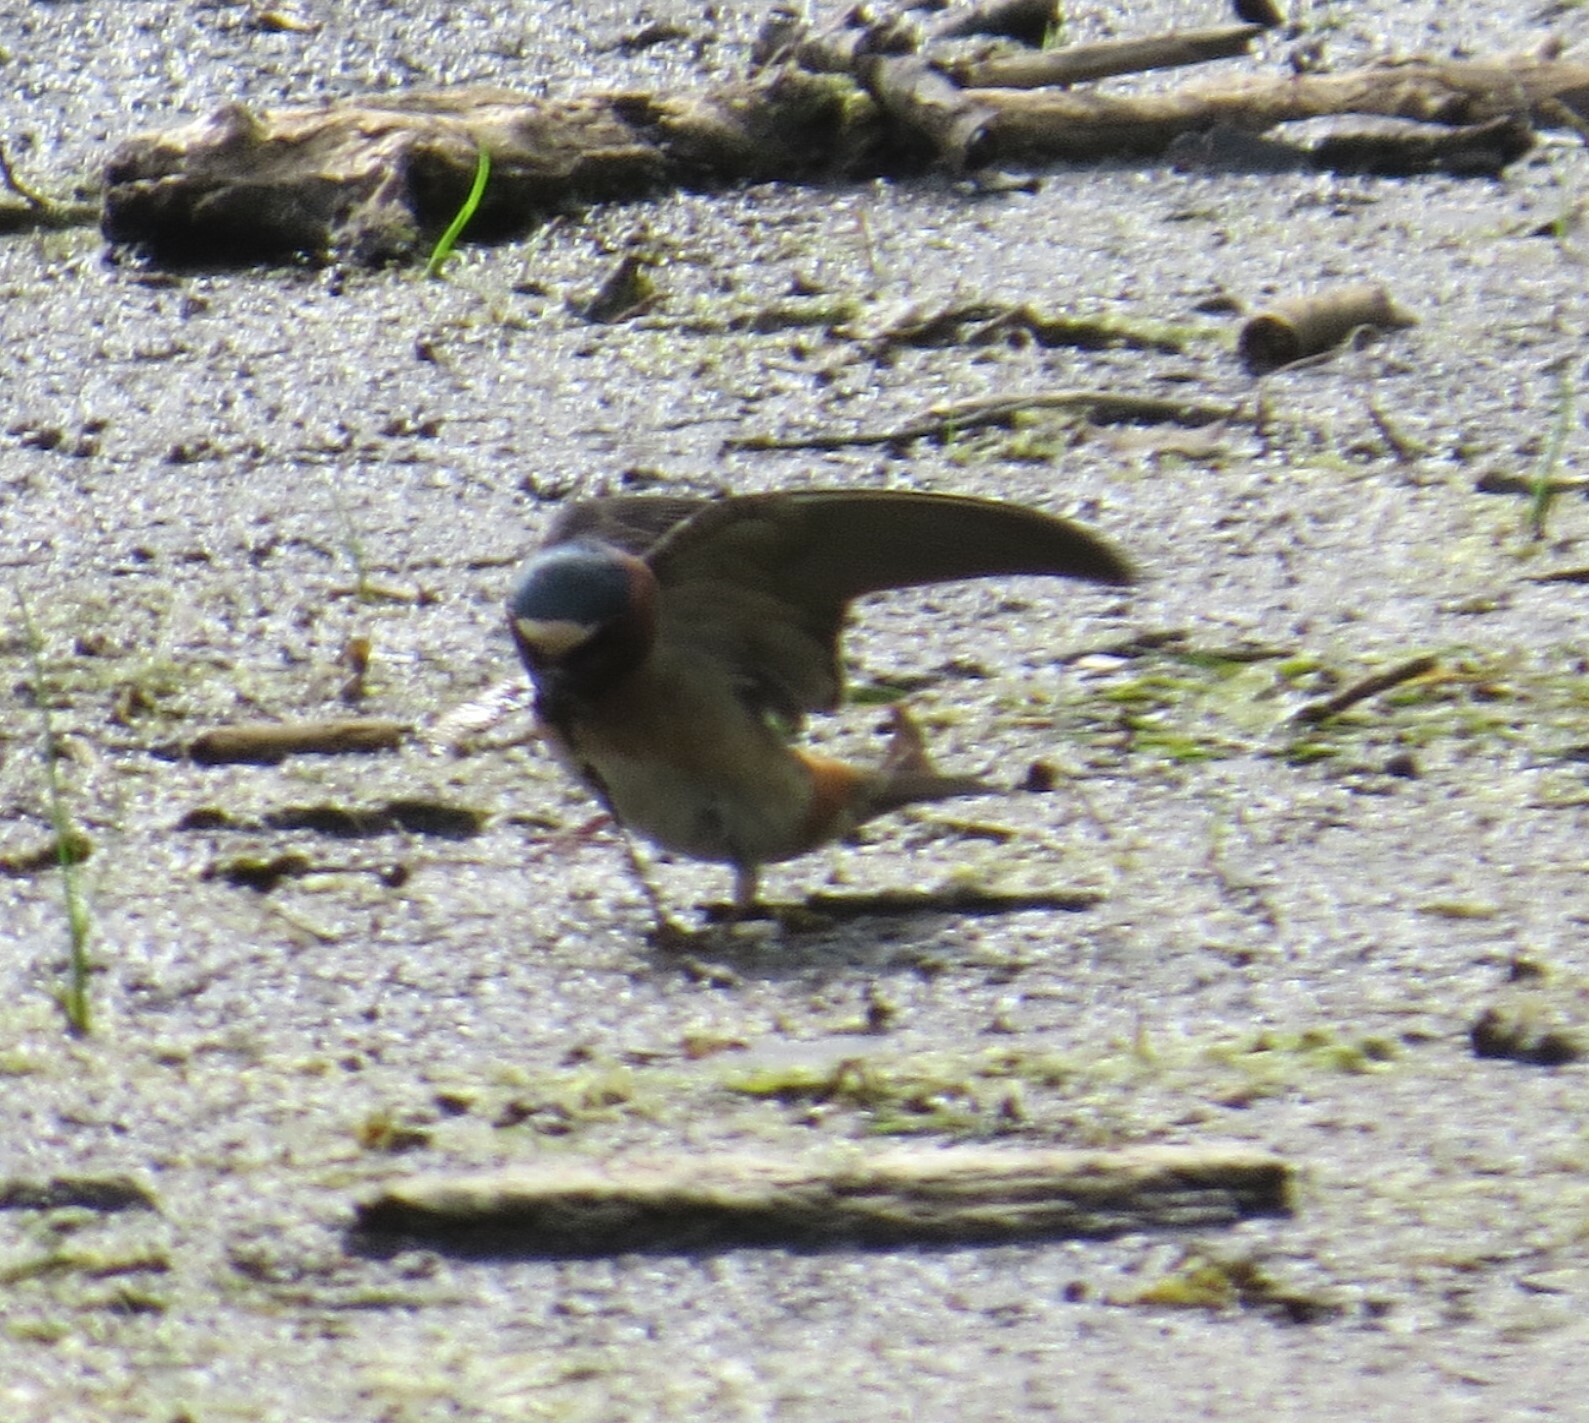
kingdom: Animalia
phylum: Chordata
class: Aves
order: Passeriformes
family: Hirundinidae
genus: Petrochelidon
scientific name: Petrochelidon pyrrhonota
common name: American cliff swallow
